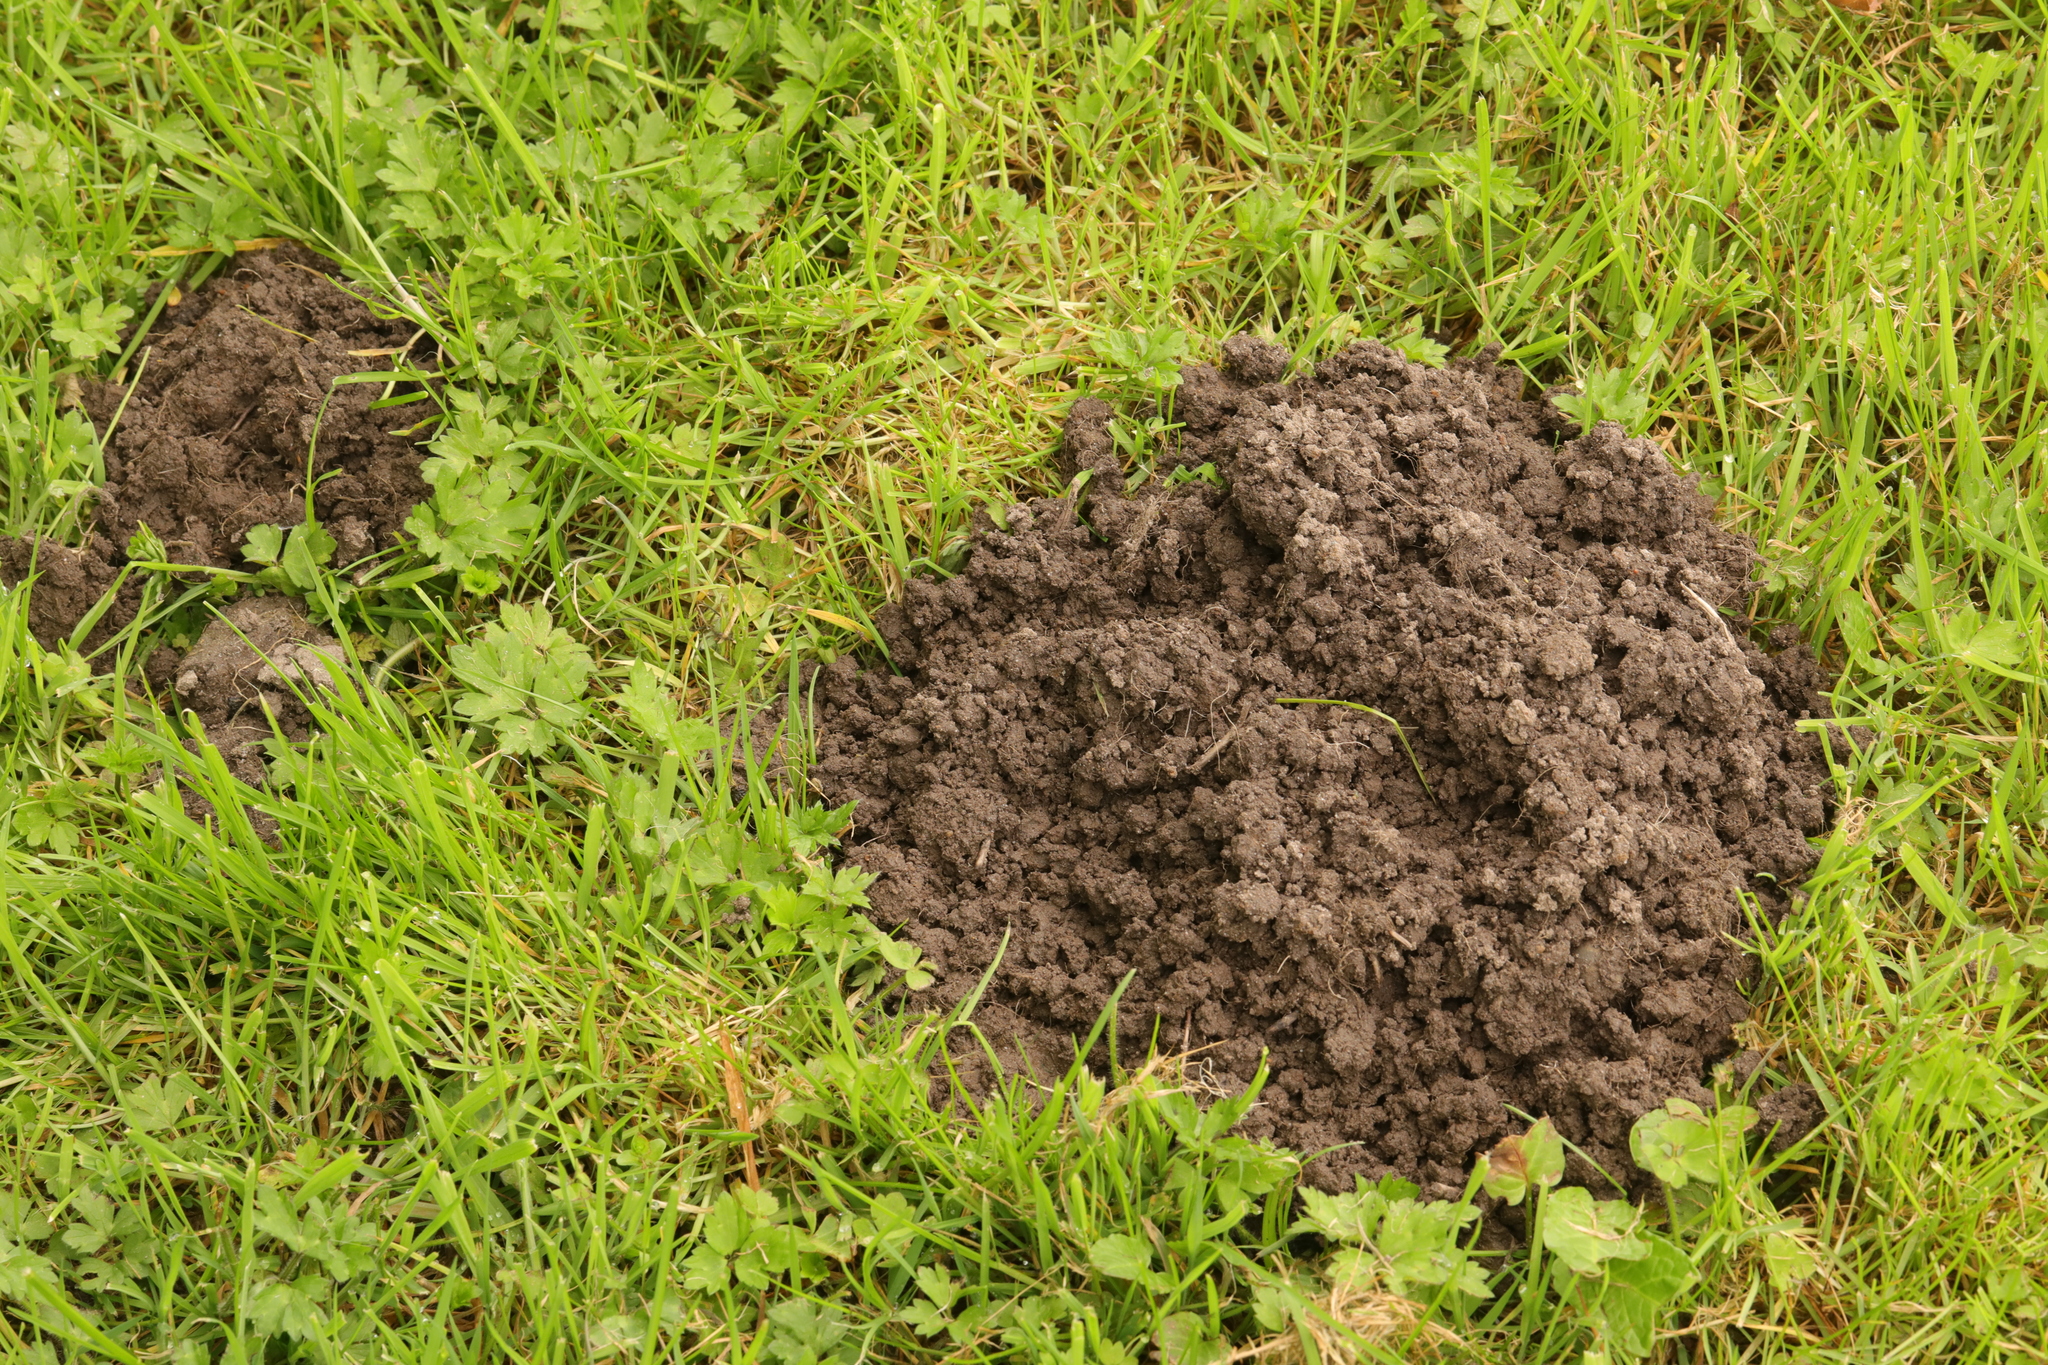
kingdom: Animalia
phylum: Chordata
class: Mammalia
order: Soricomorpha
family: Talpidae
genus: Talpa
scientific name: Talpa europaea
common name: European mole
